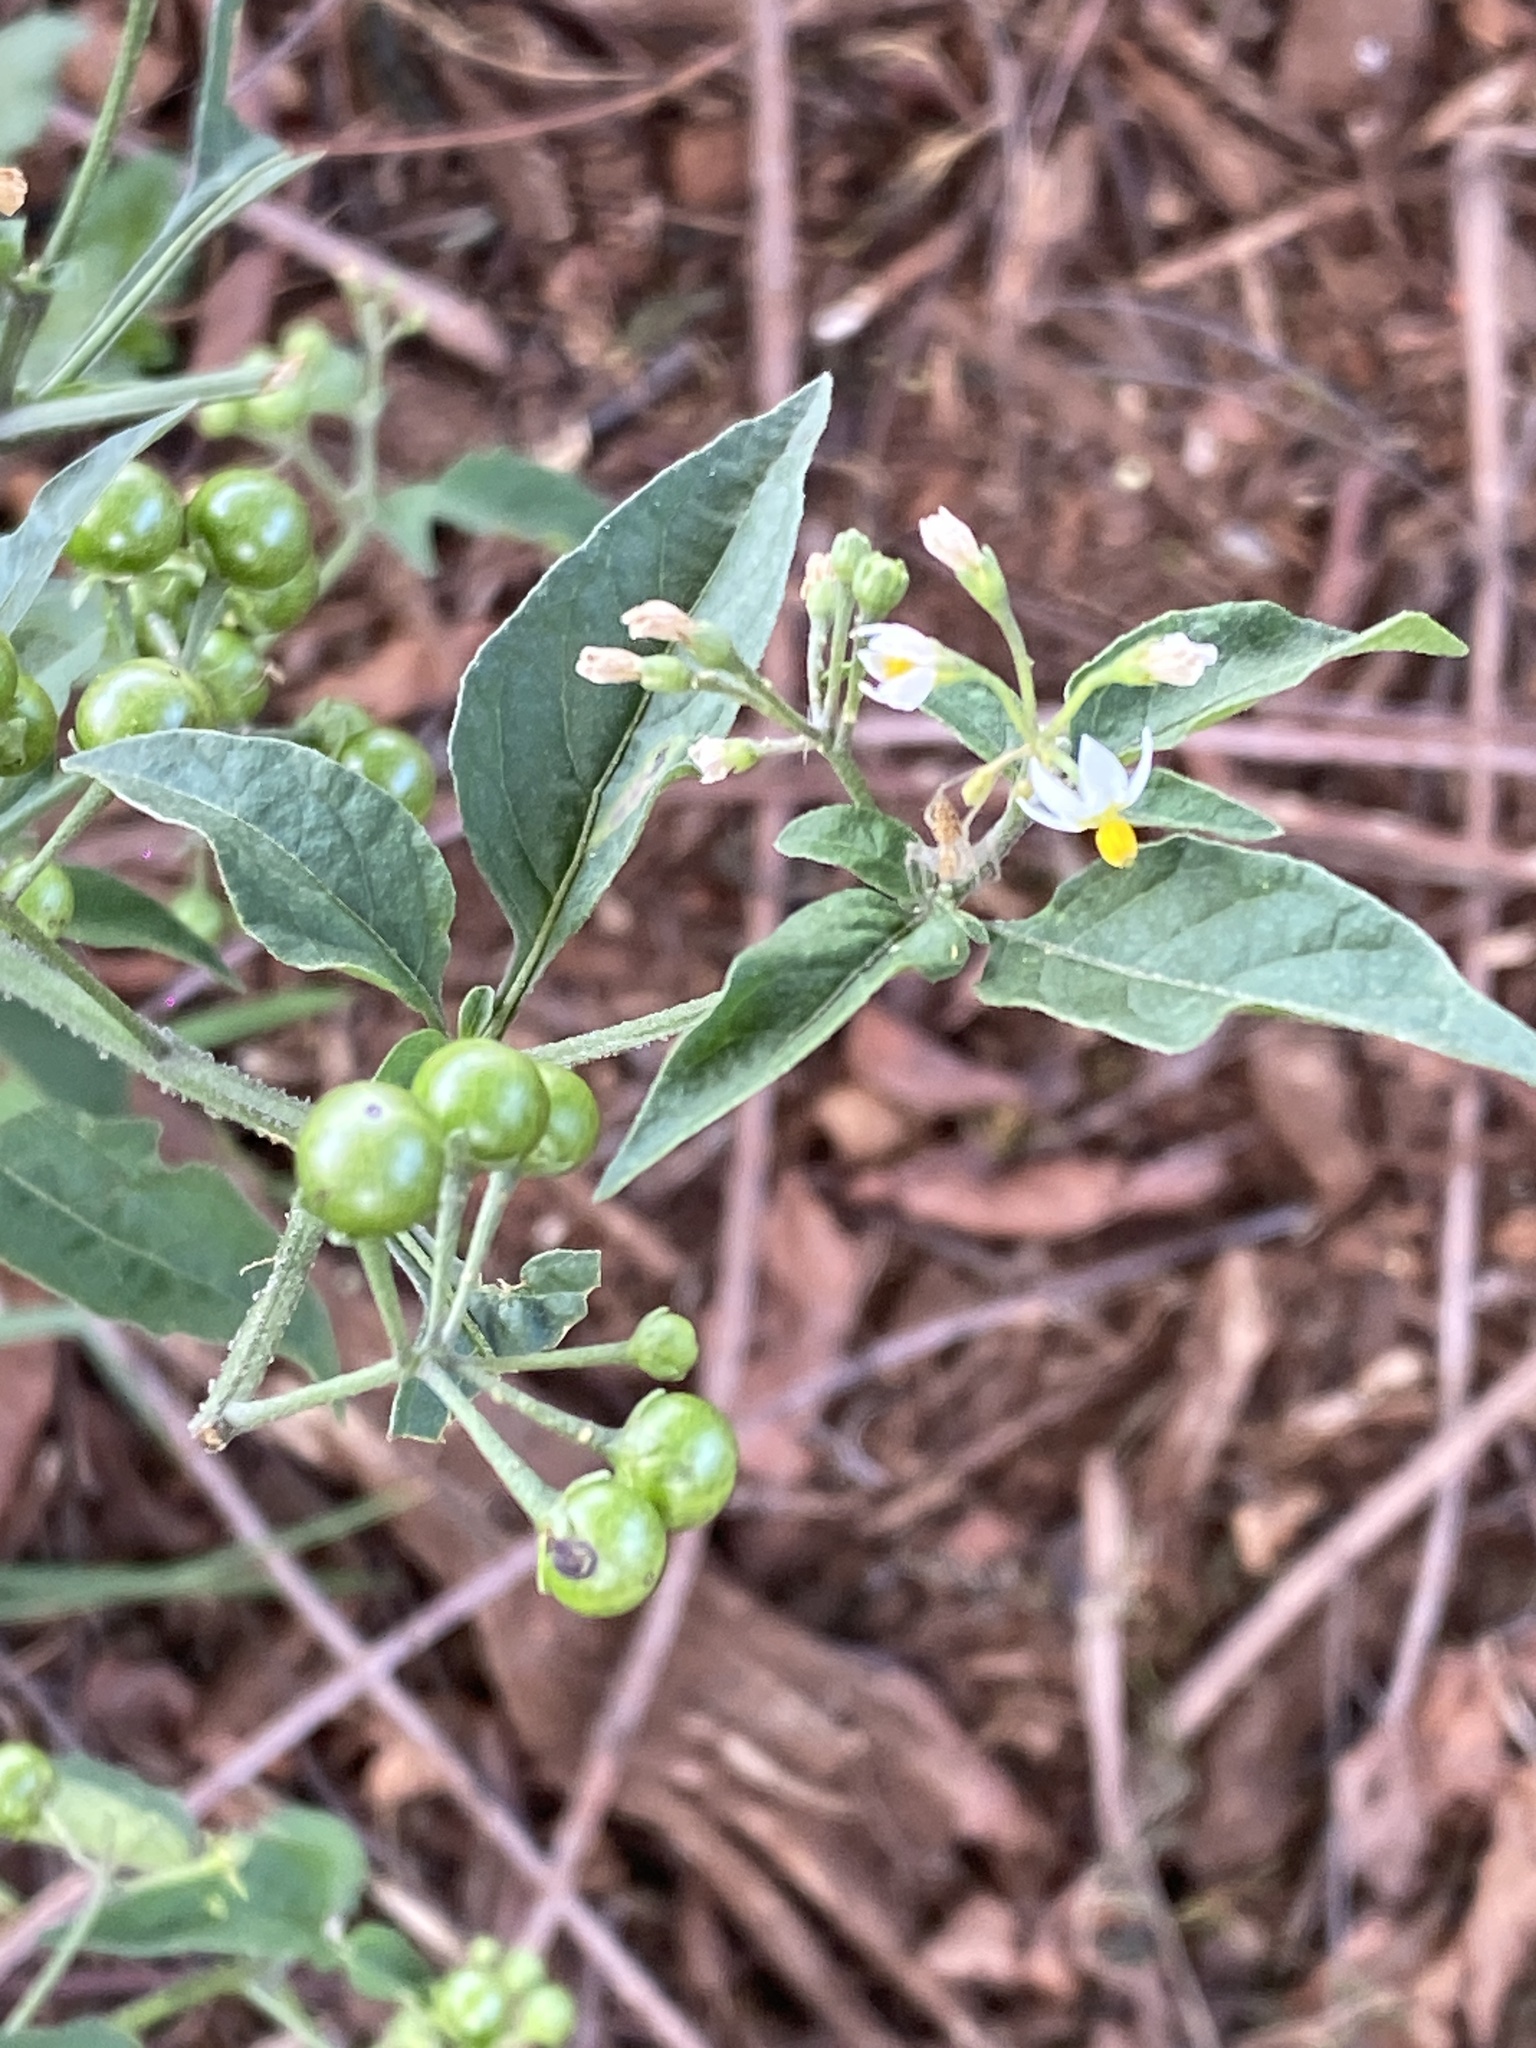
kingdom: Plantae
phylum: Tracheophyta
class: Magnoliopsida
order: Solanales
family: Solanaceae
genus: Solanum
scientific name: Solanum americanum
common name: American black nightshade
